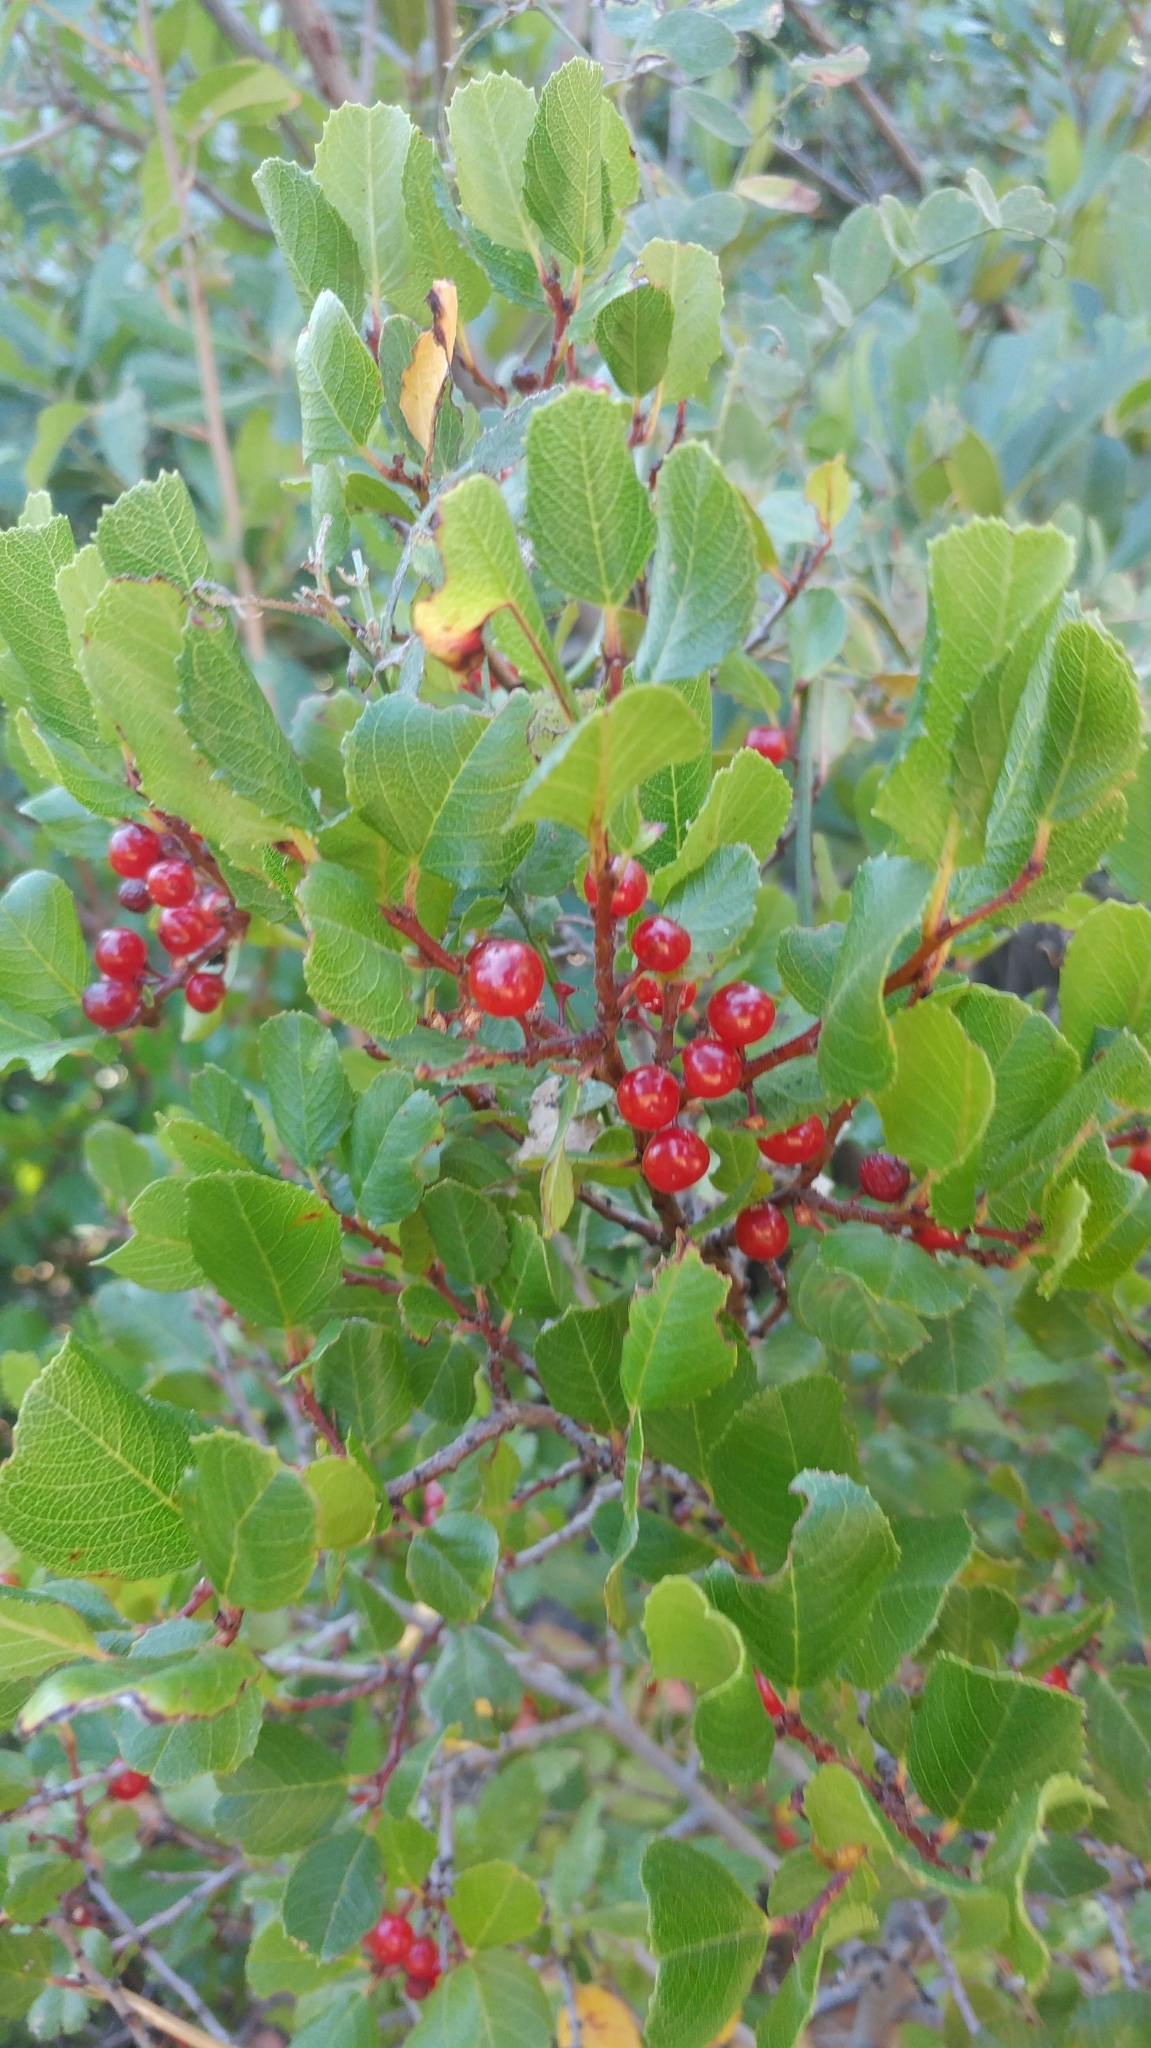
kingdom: Plantae
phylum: Tracheophyta
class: Magnoliopsida
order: Rosales
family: Rhamnaceae
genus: Endotropis
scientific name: Endotropis crocea
